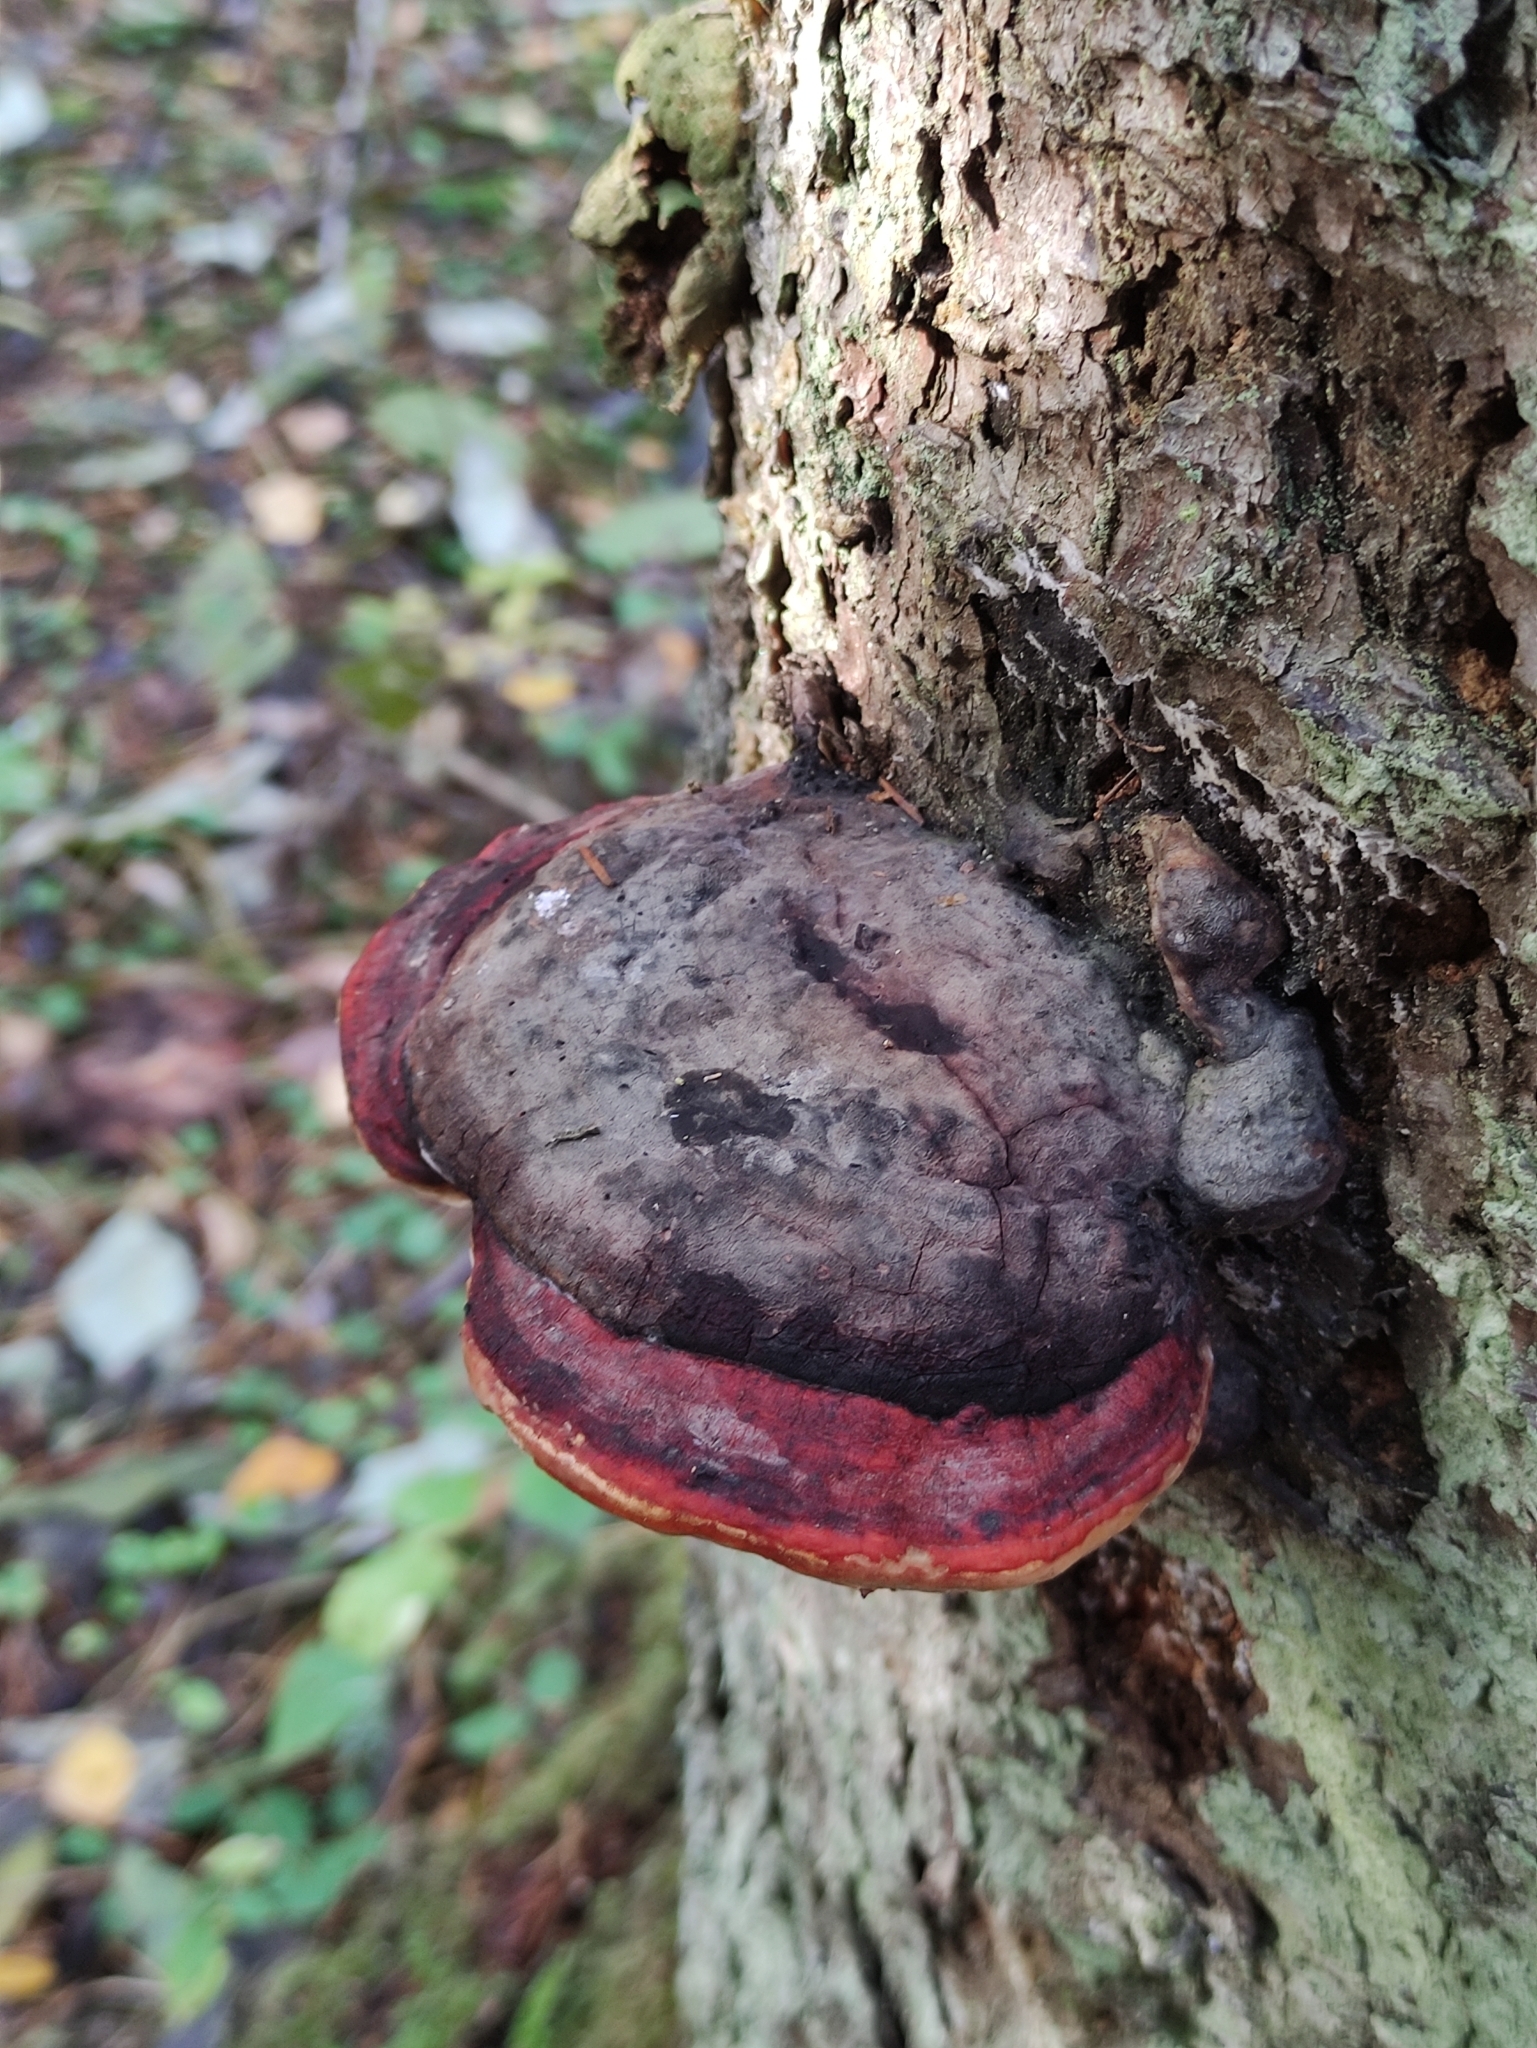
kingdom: Fungi
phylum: Basidiomycota
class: Agaricomycetes
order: Polyporales
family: Fomitopsidaceae
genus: Fomitopsis
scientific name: Fomitopsis pinicola
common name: Red-belted bracket
